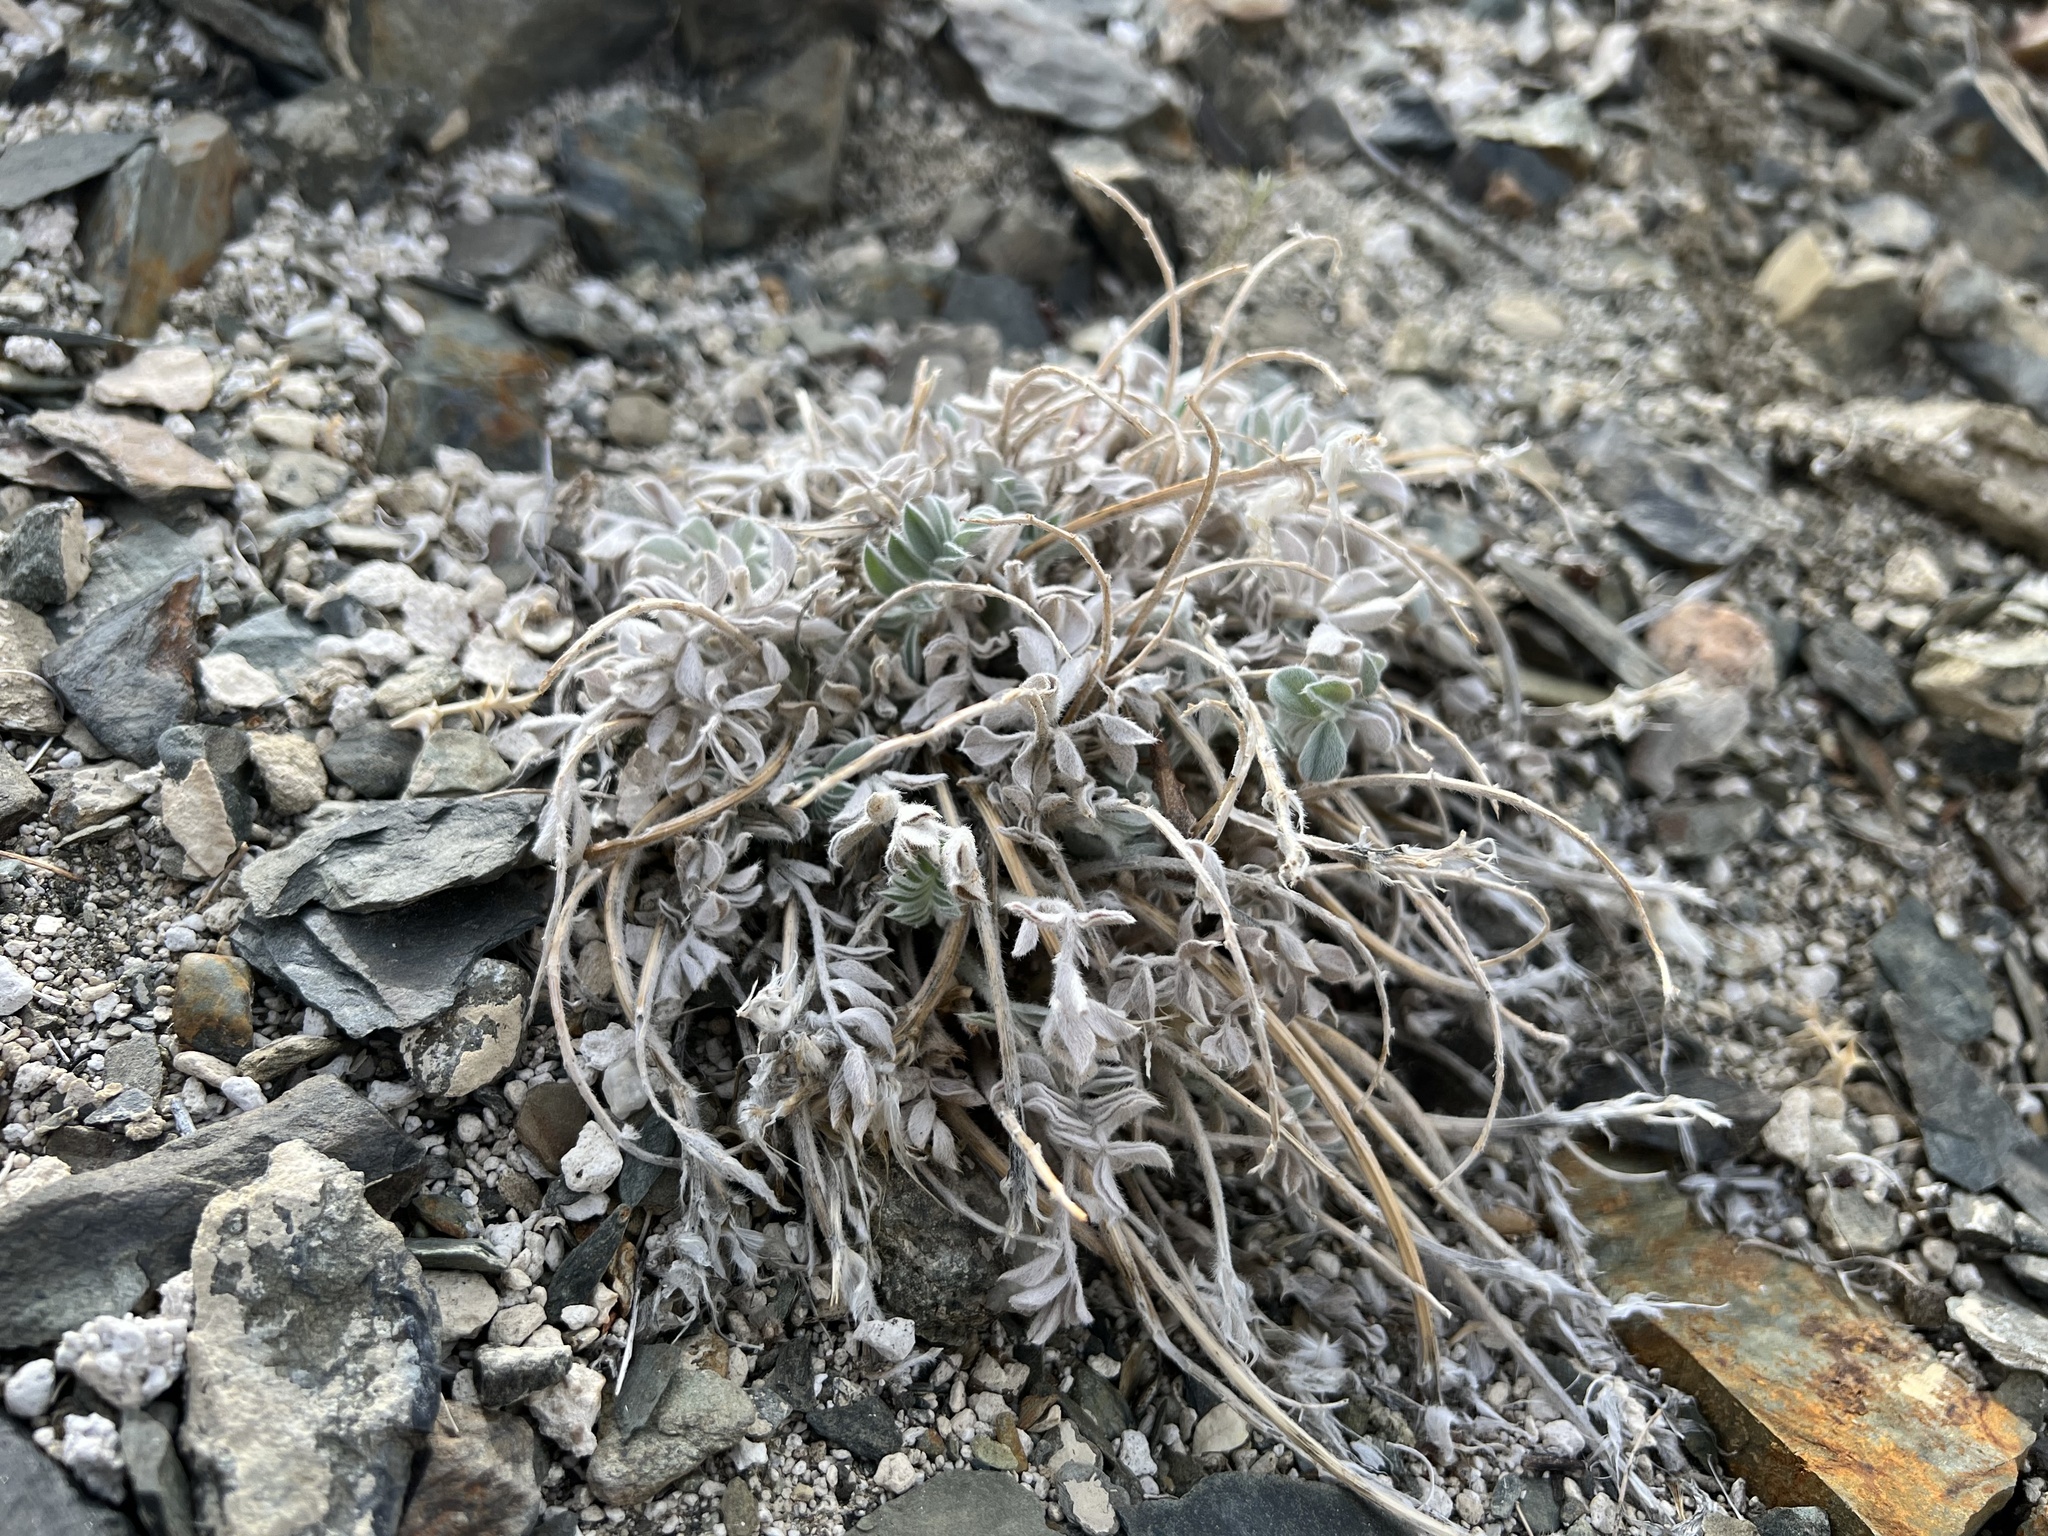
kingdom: Plantae
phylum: Tracheophyta
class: Magnoliopsida
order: Fabales
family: Fabaceae
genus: Astragalus
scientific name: Astragalus coccineus
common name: Scarlet milk-vetch
